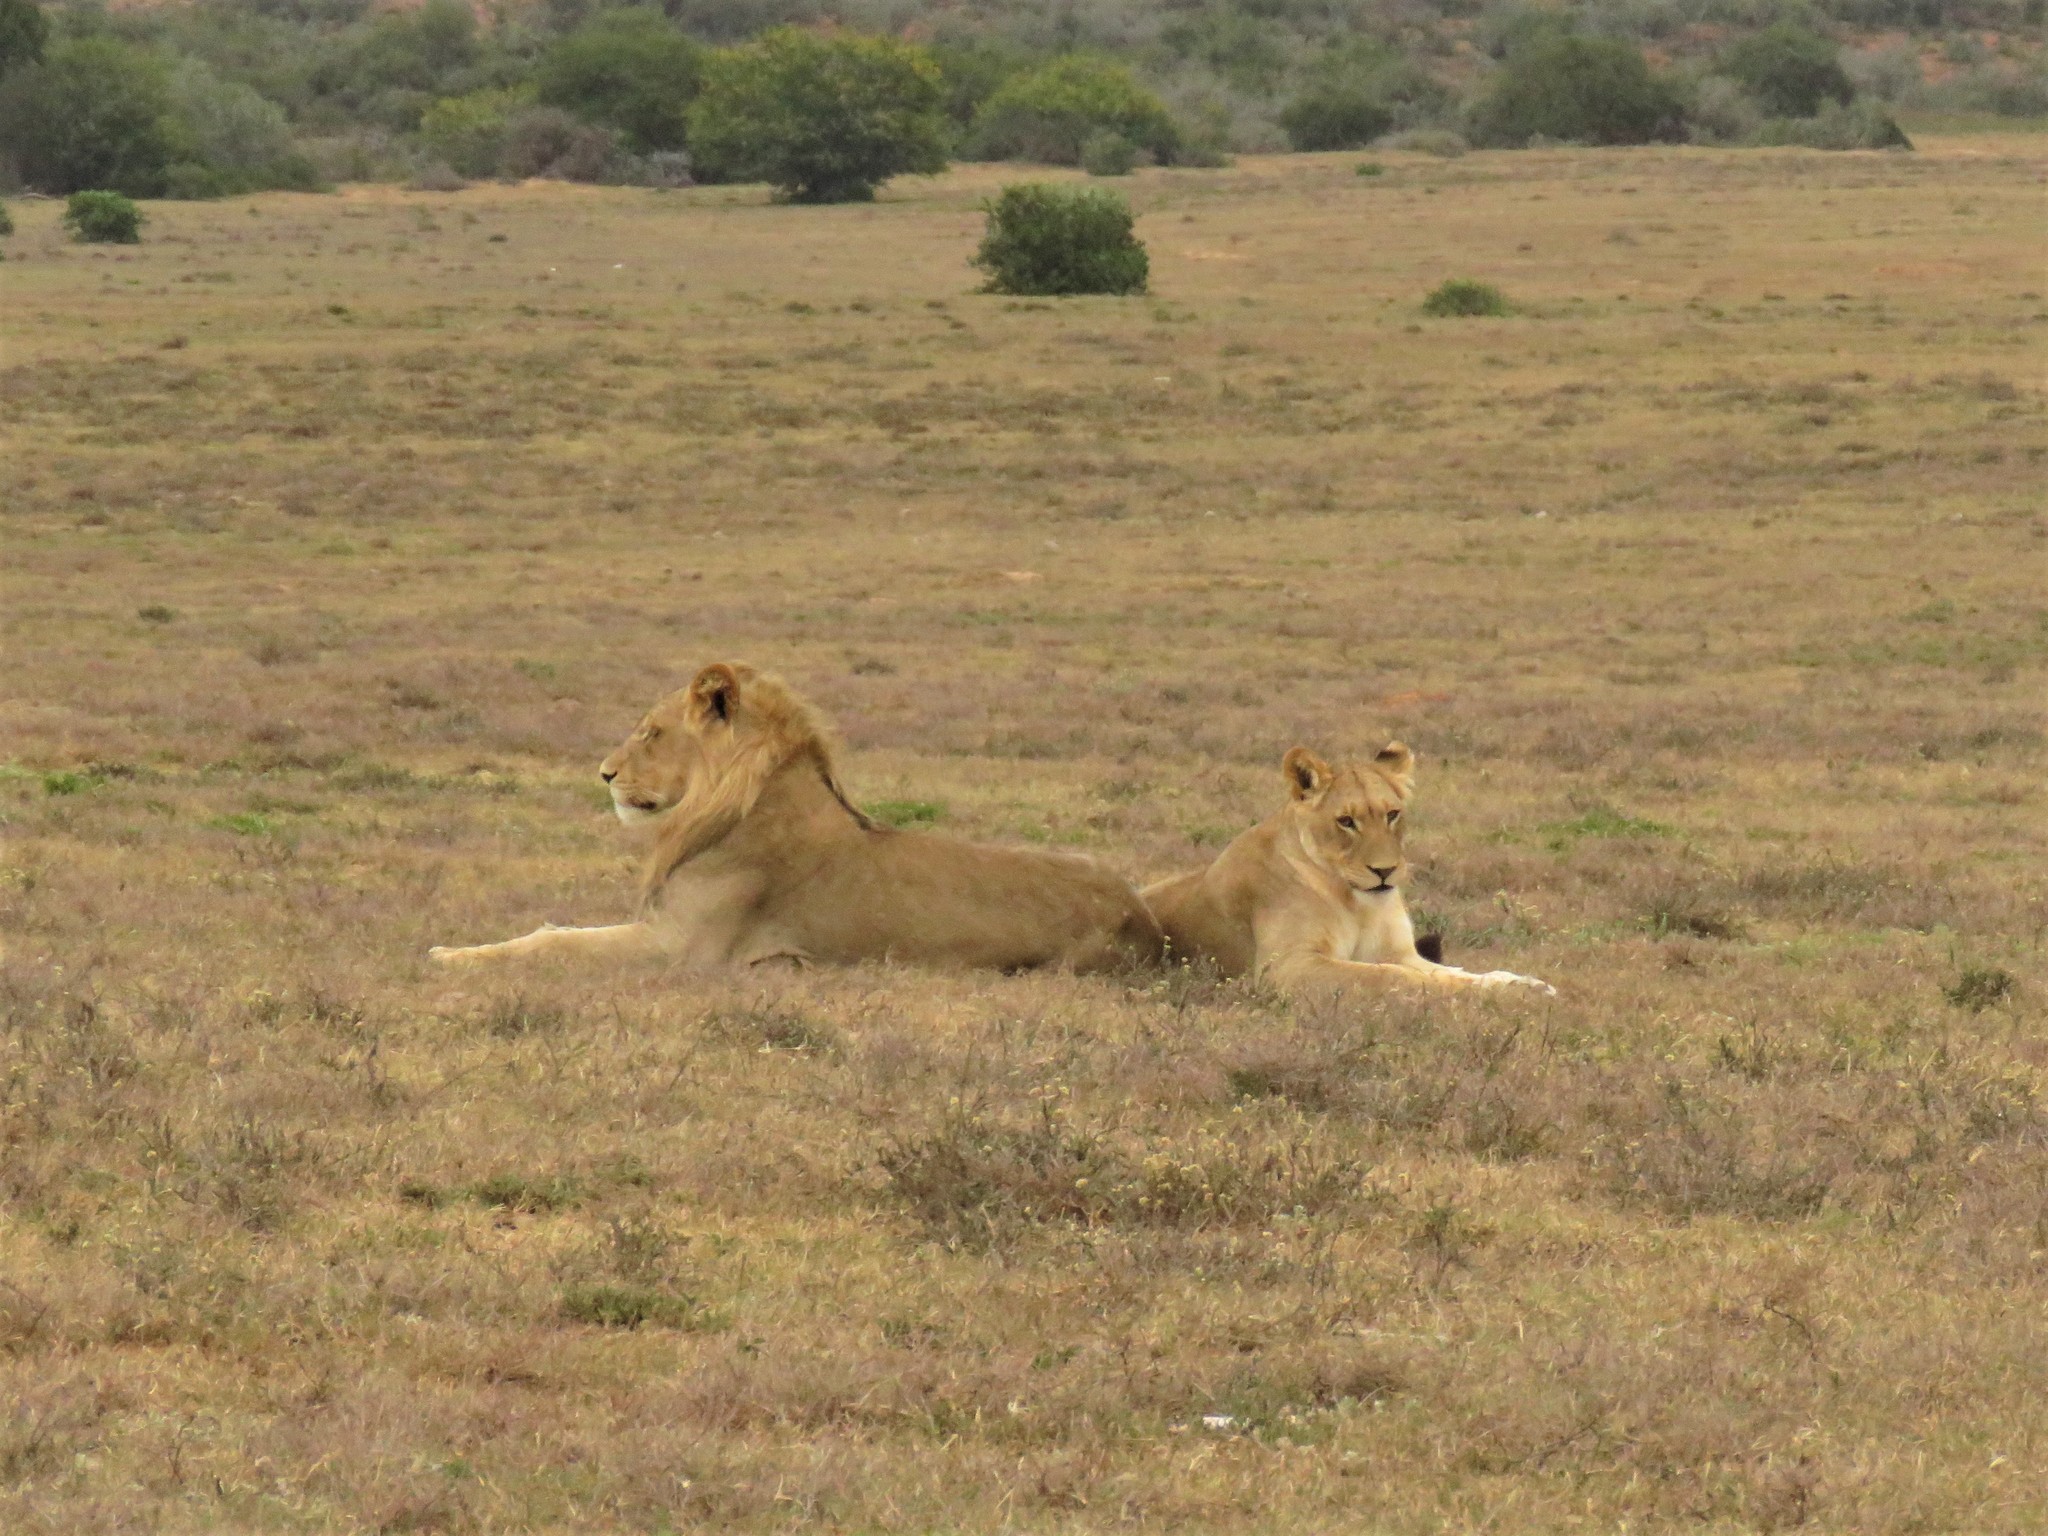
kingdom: Animalia
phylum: Chordata
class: Mammalia
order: Carnivora
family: Felidae
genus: Panthera
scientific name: Panthera leo
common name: Lion
